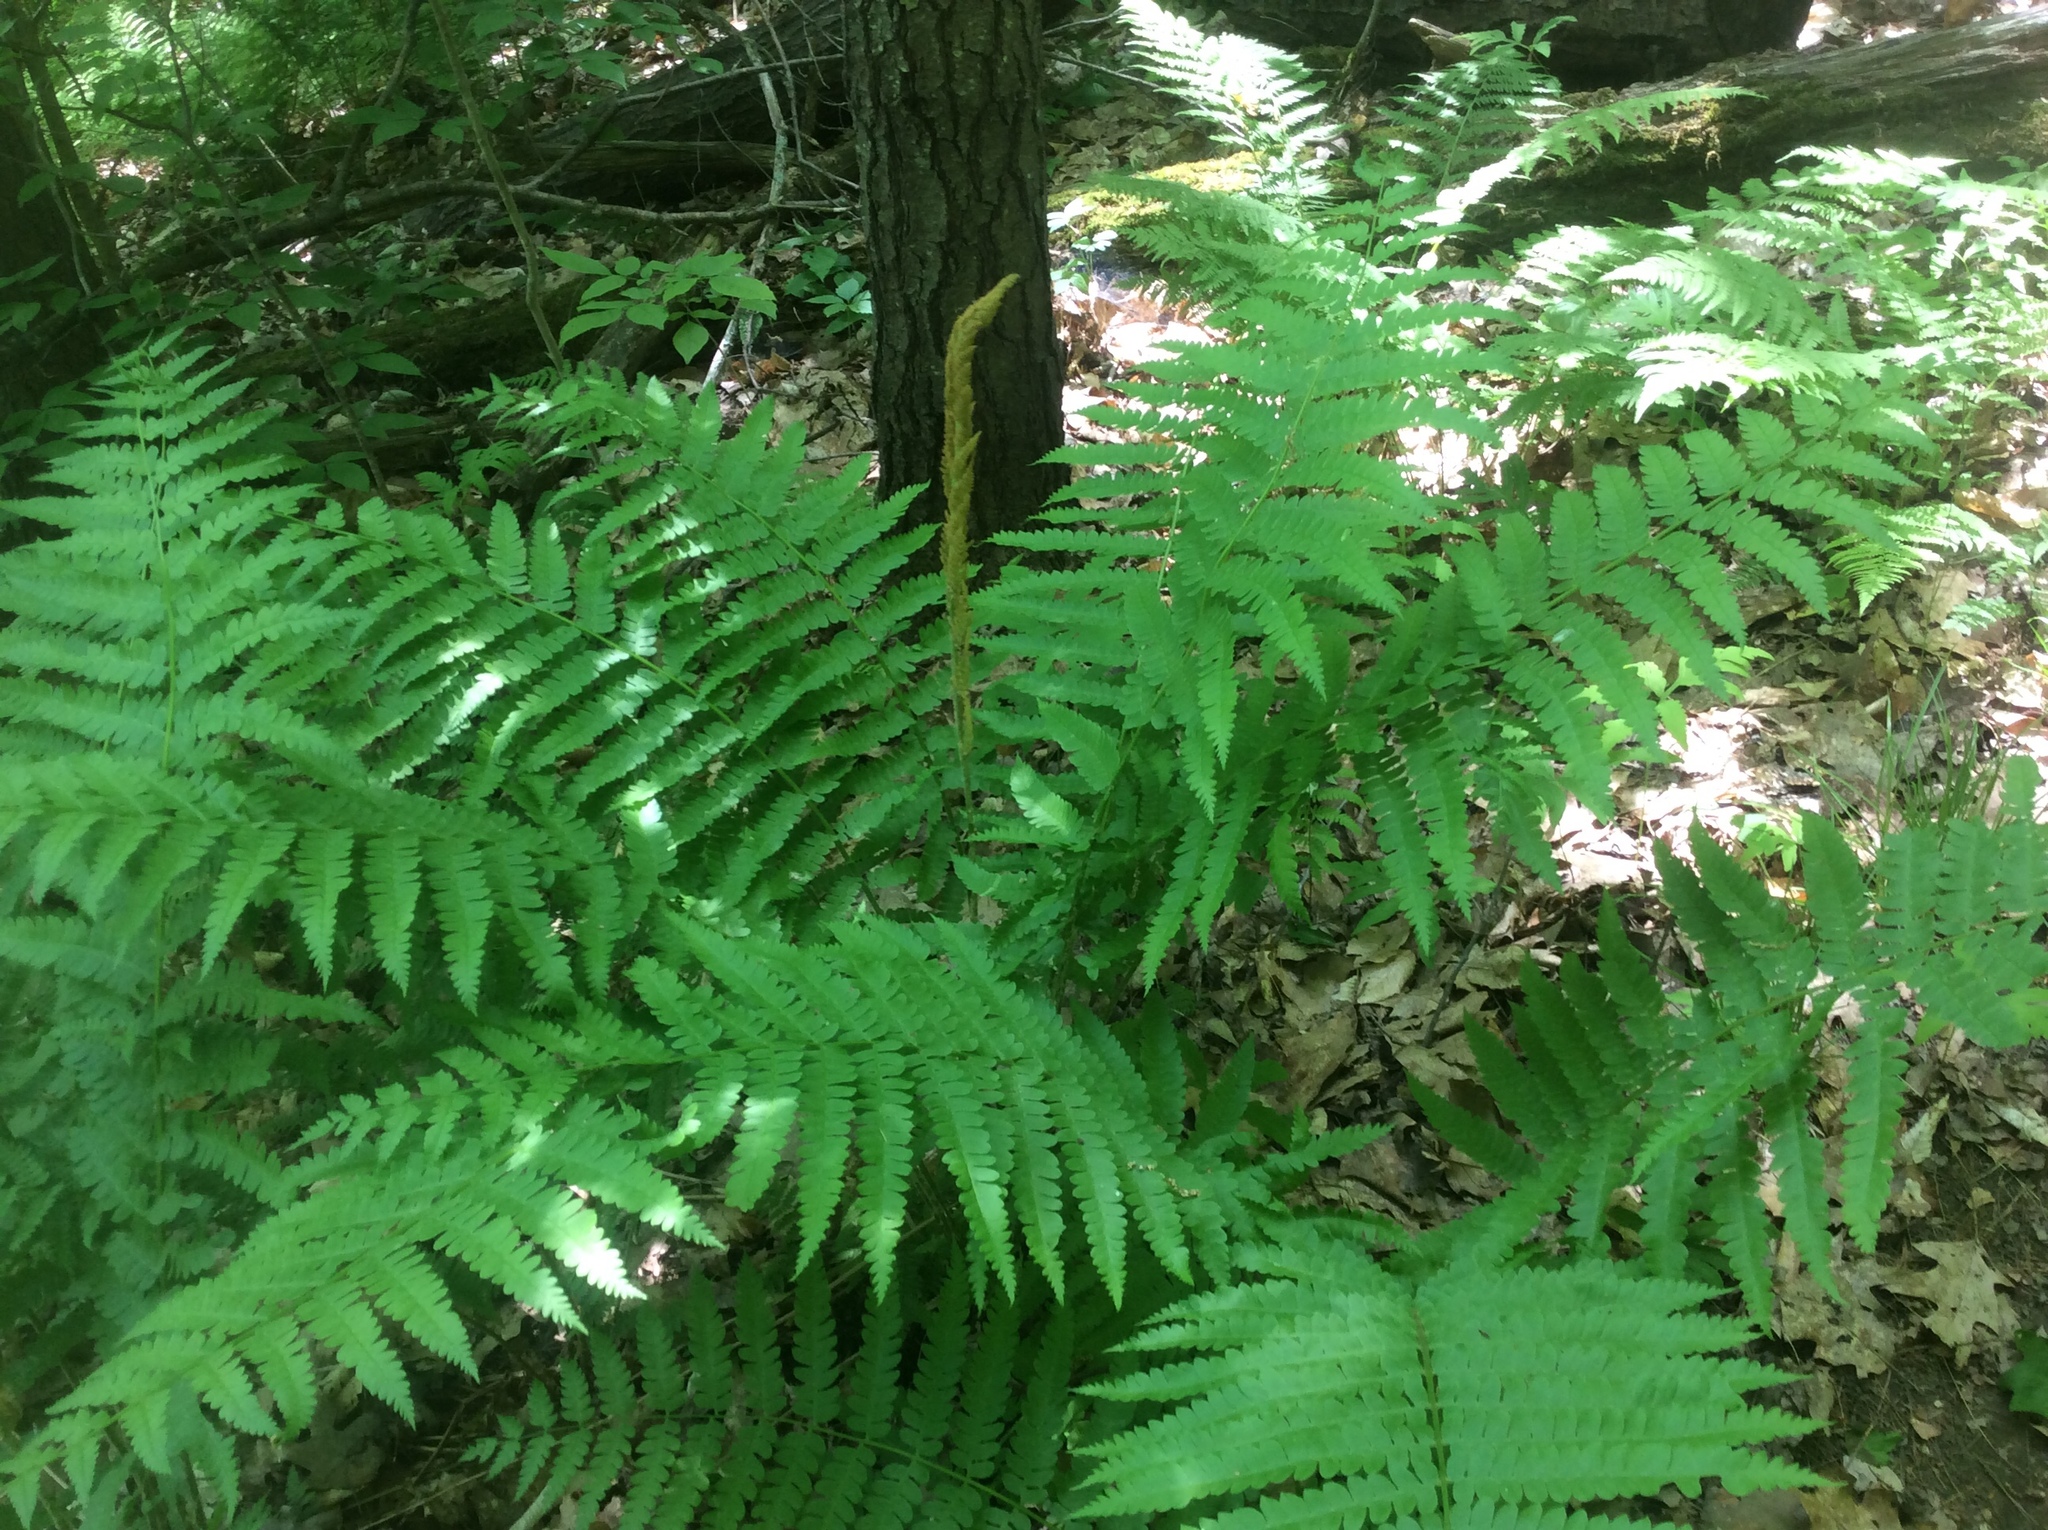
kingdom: Plantae
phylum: Tracheophyta
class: Polypodiopsida
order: Osmundales
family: Osmundaceae
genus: Osmundastrum
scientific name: Osmundastrum cinnamomeum
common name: Cinnamon fern
